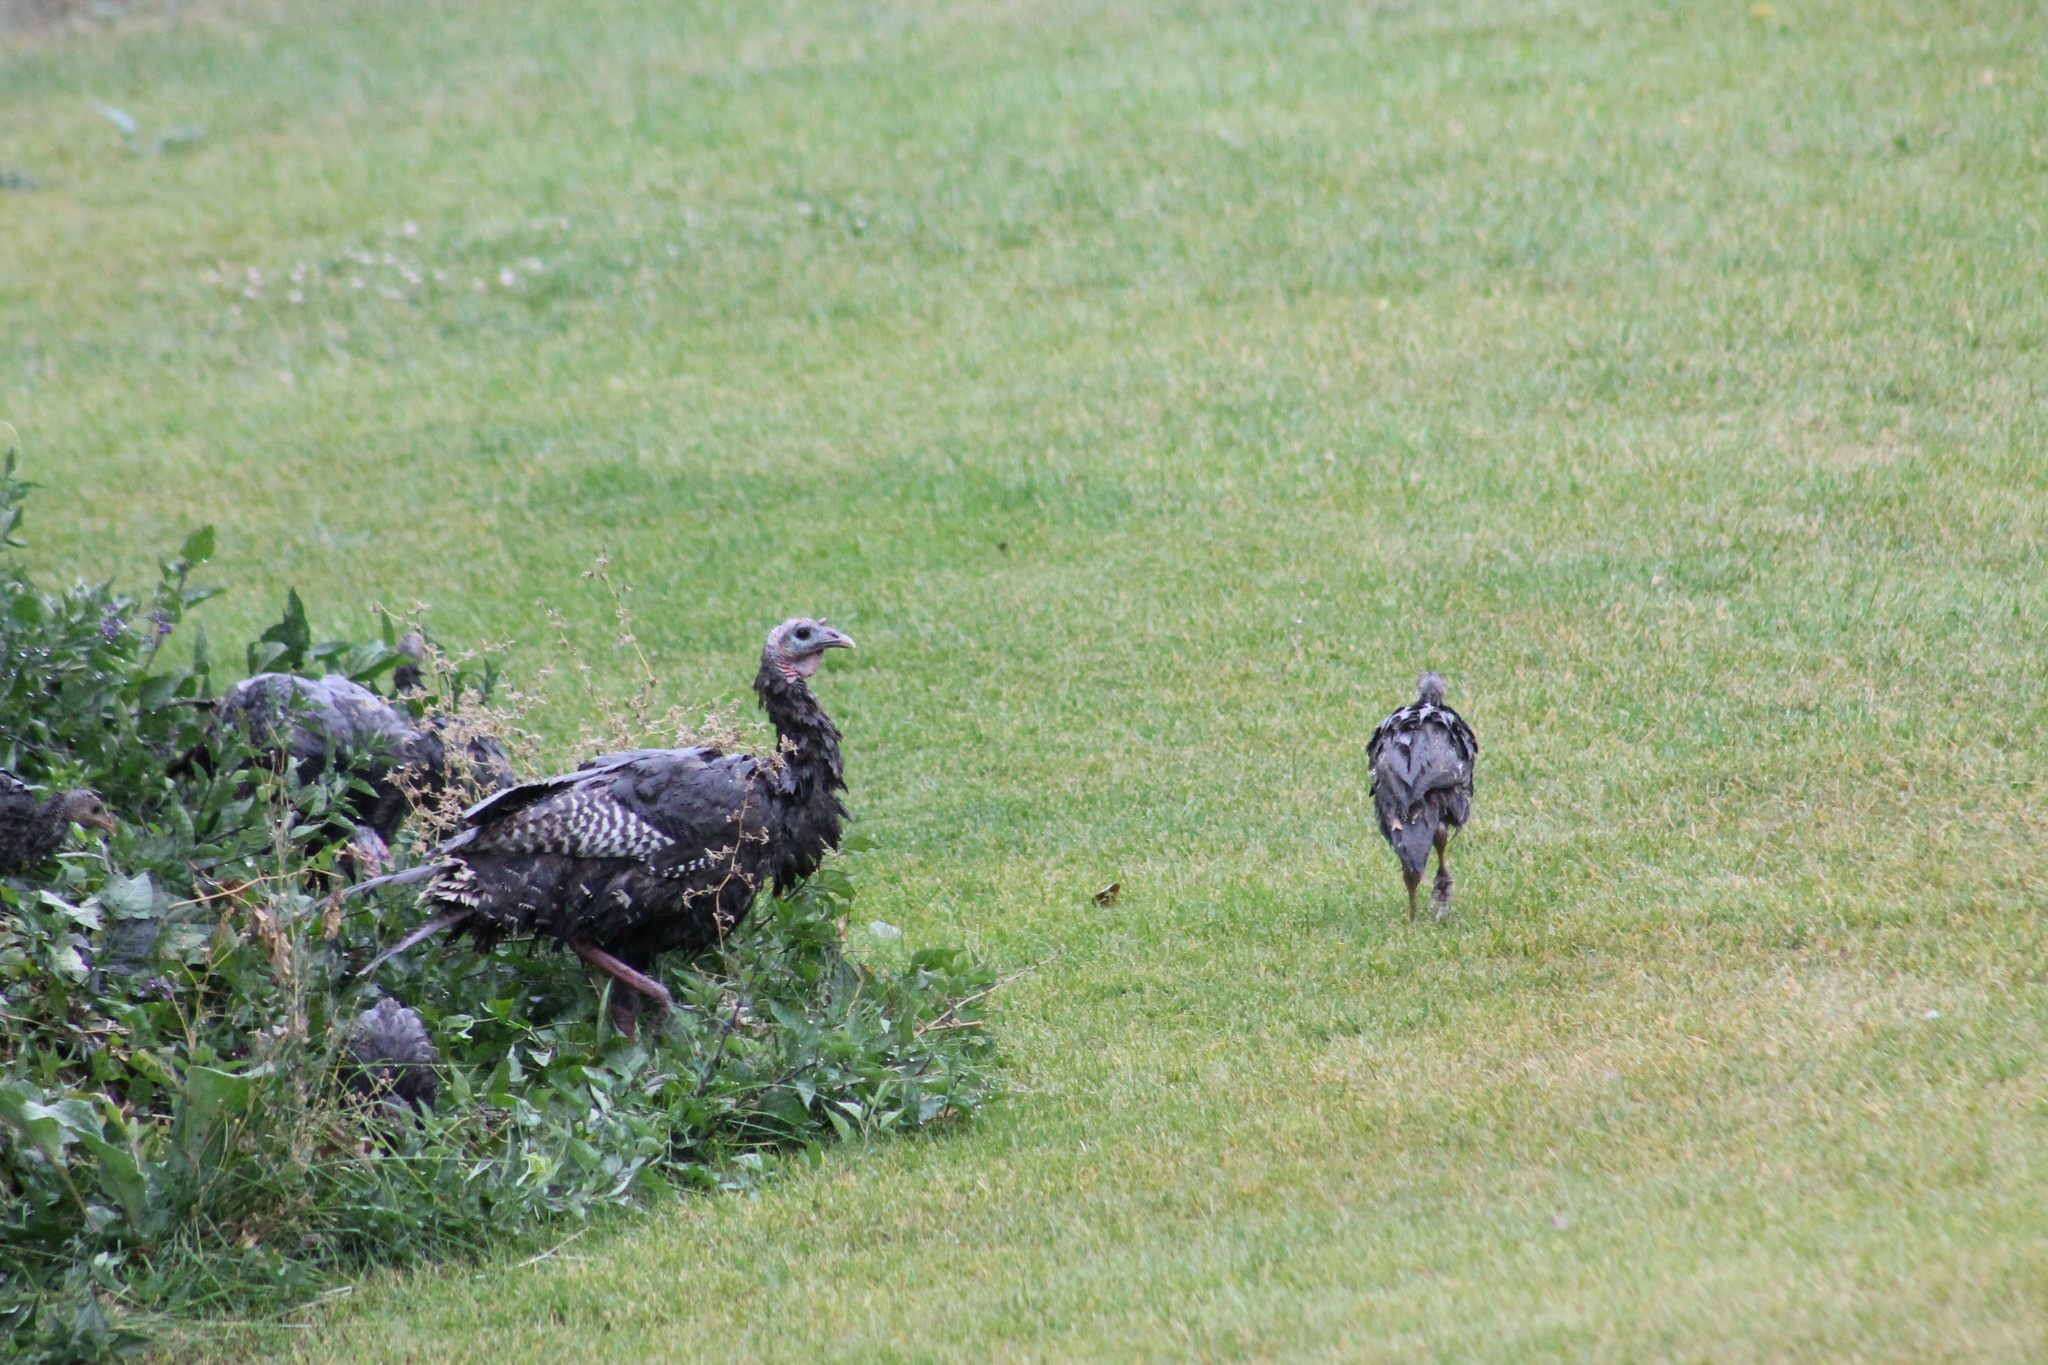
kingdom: Animalia
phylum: Chordata
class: Aves
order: Galliformes
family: Phasianidae
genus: Meleagris
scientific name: Meleagris gallopavo
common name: Wild turkey
